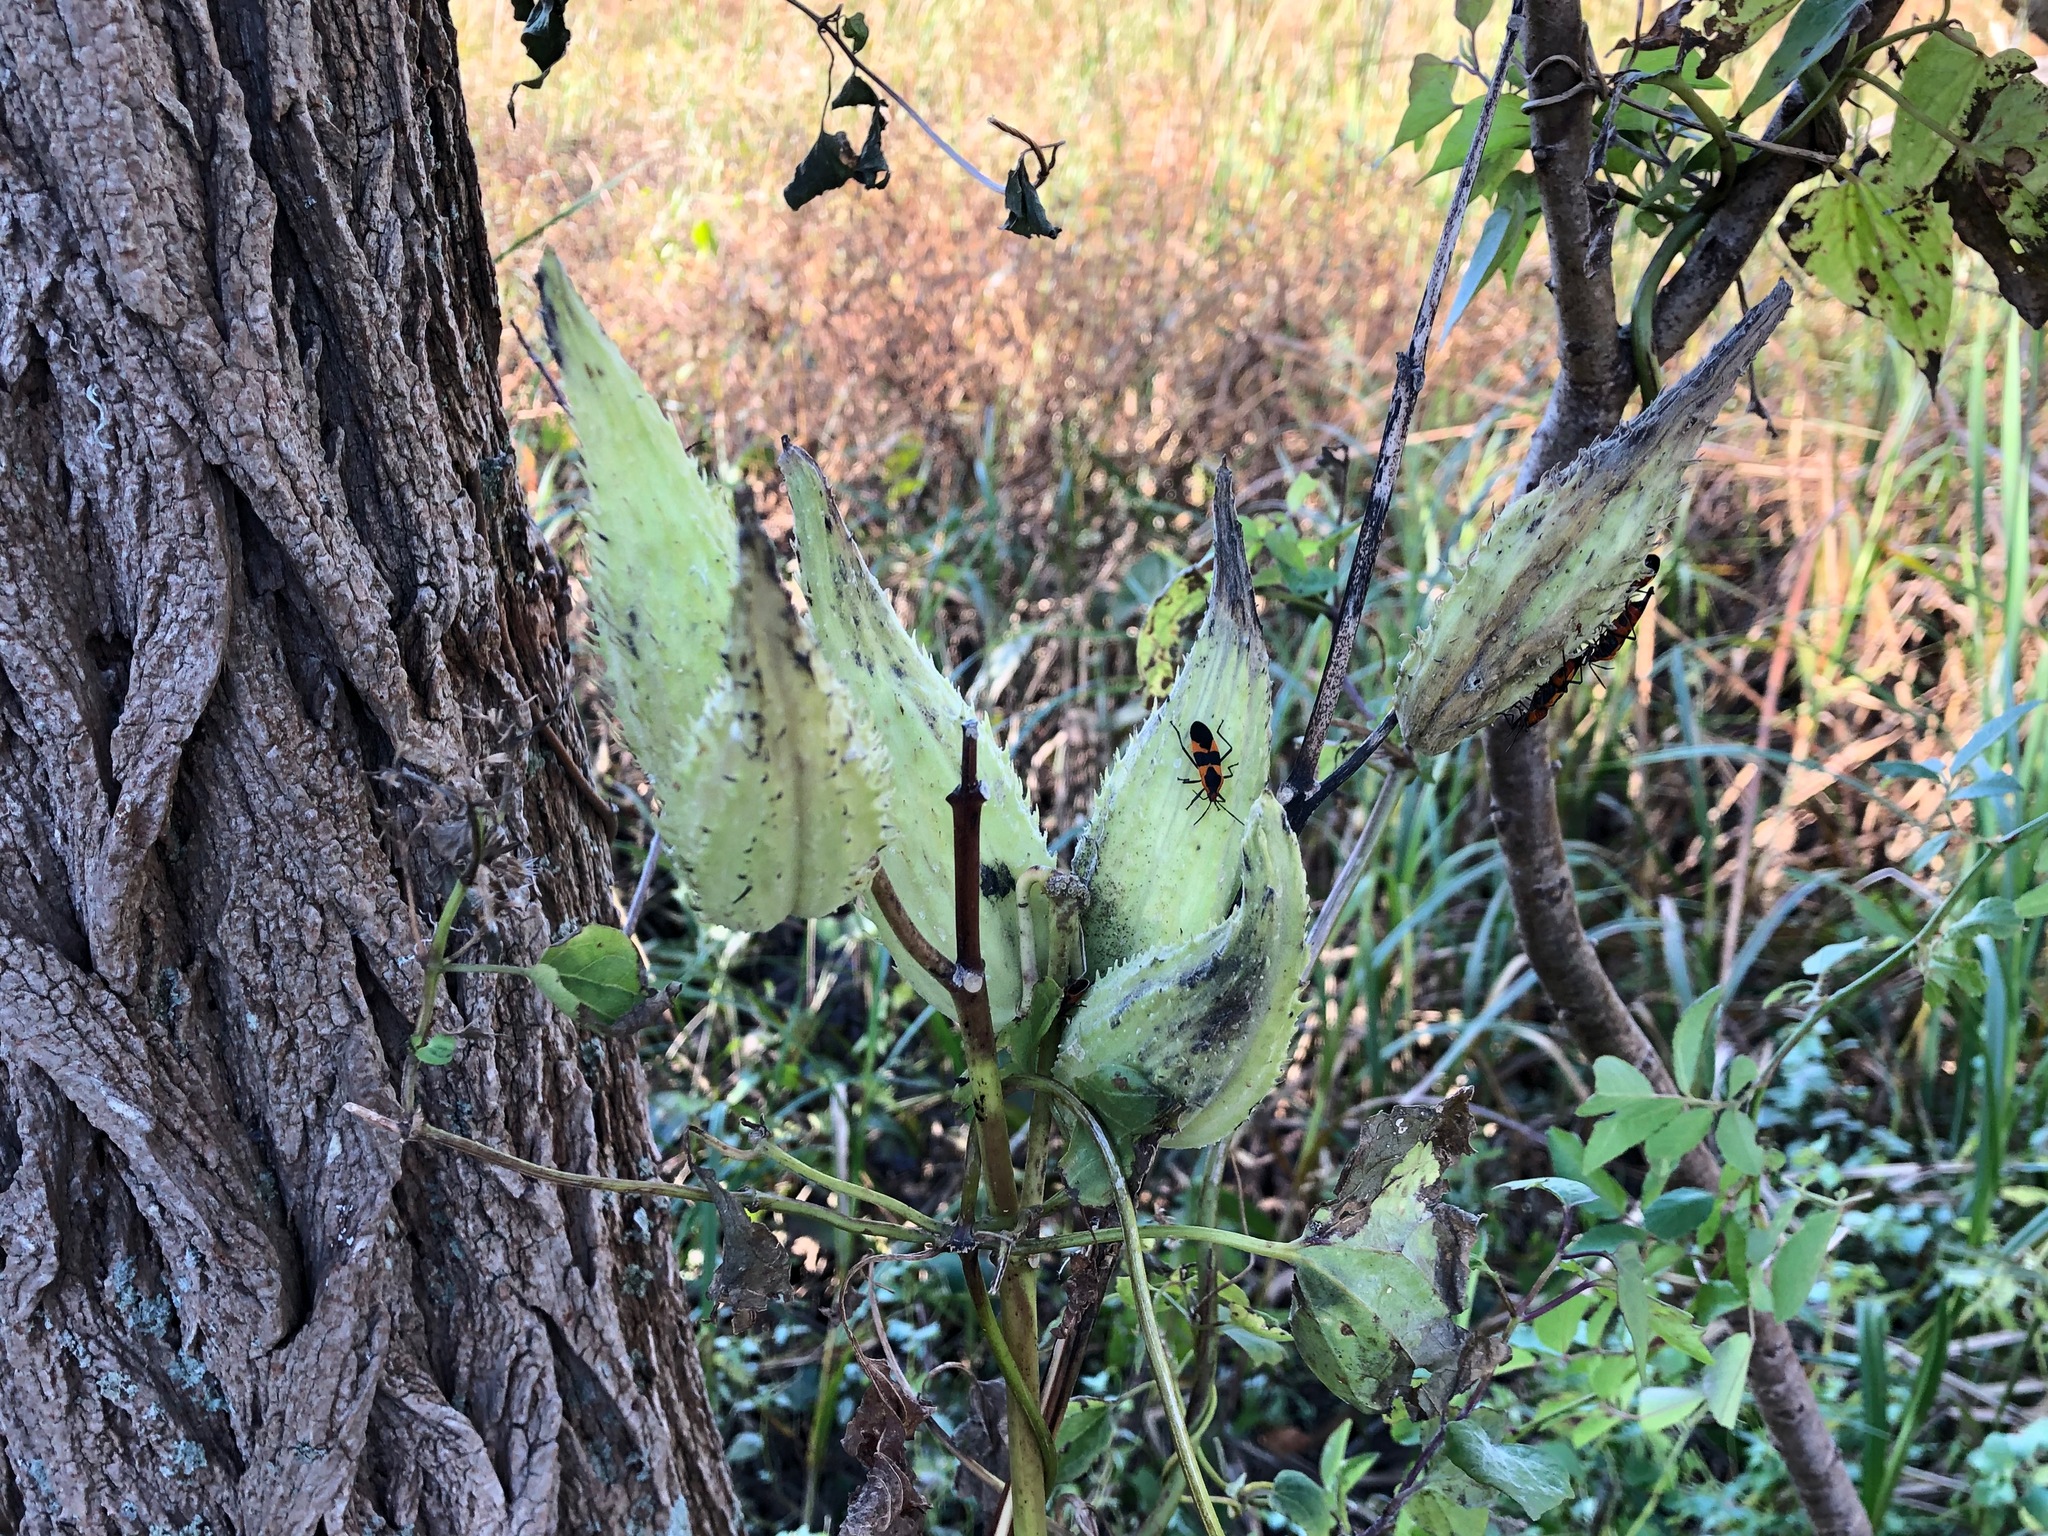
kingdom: Plantae
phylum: Tracheophyta
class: Magnoliopsida
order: Gentianales
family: Apocynaceae
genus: Asclepias
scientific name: Asclepias syriaca
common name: Common milkweed
